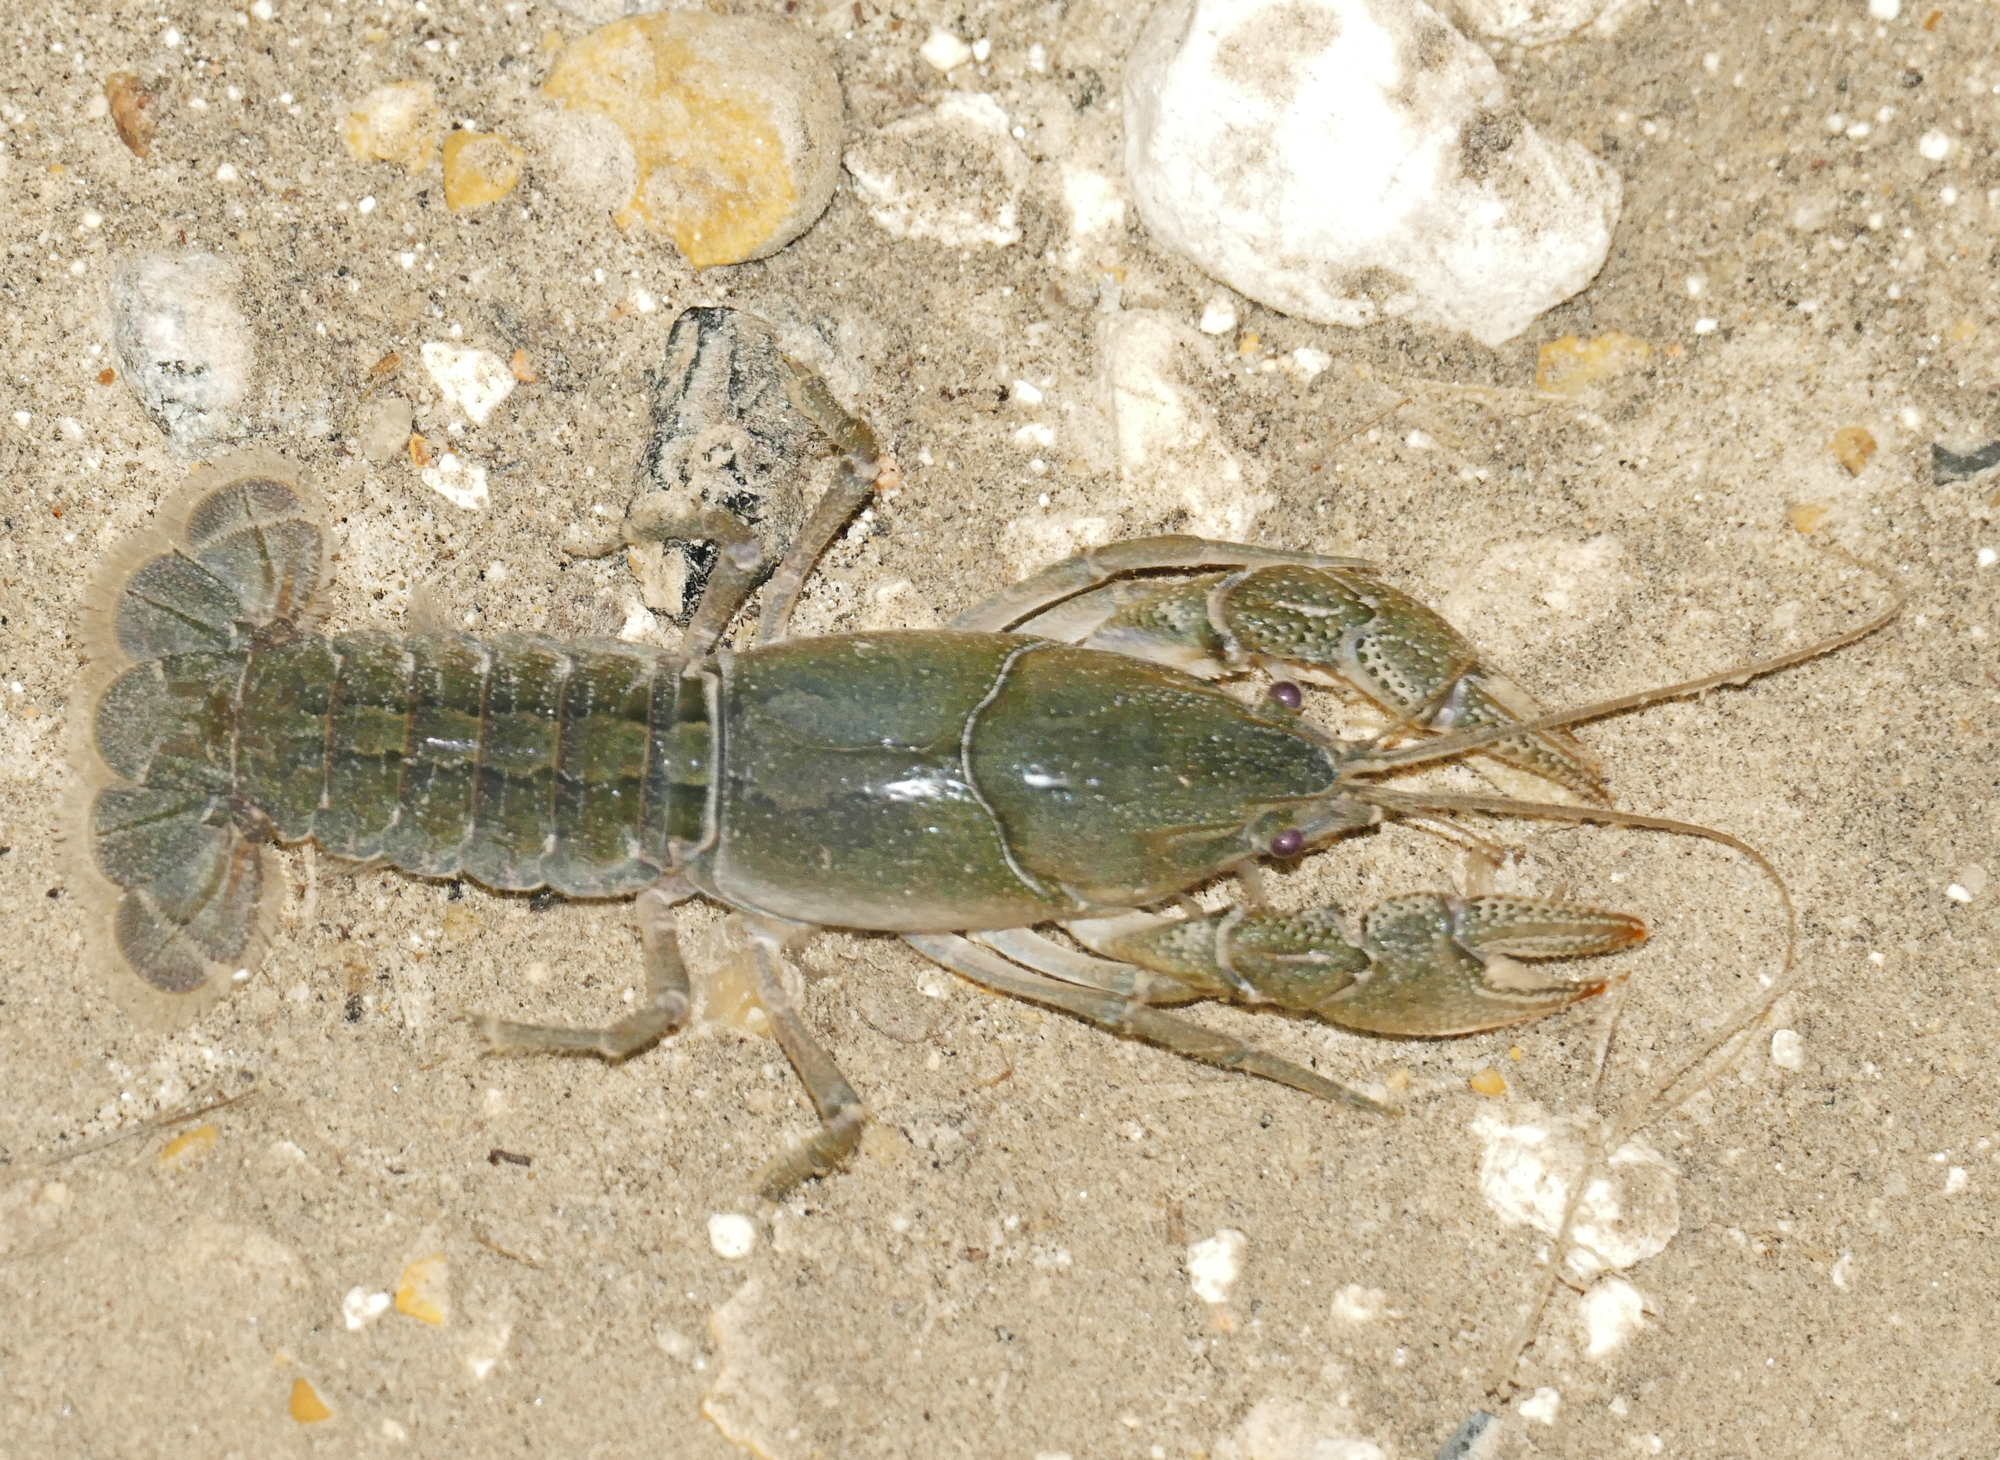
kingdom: Animalia
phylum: Arthropoda
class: Malacostraca
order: Decapoda
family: Cambaridae
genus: Creaserinus
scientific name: Creaserinus fodiens
